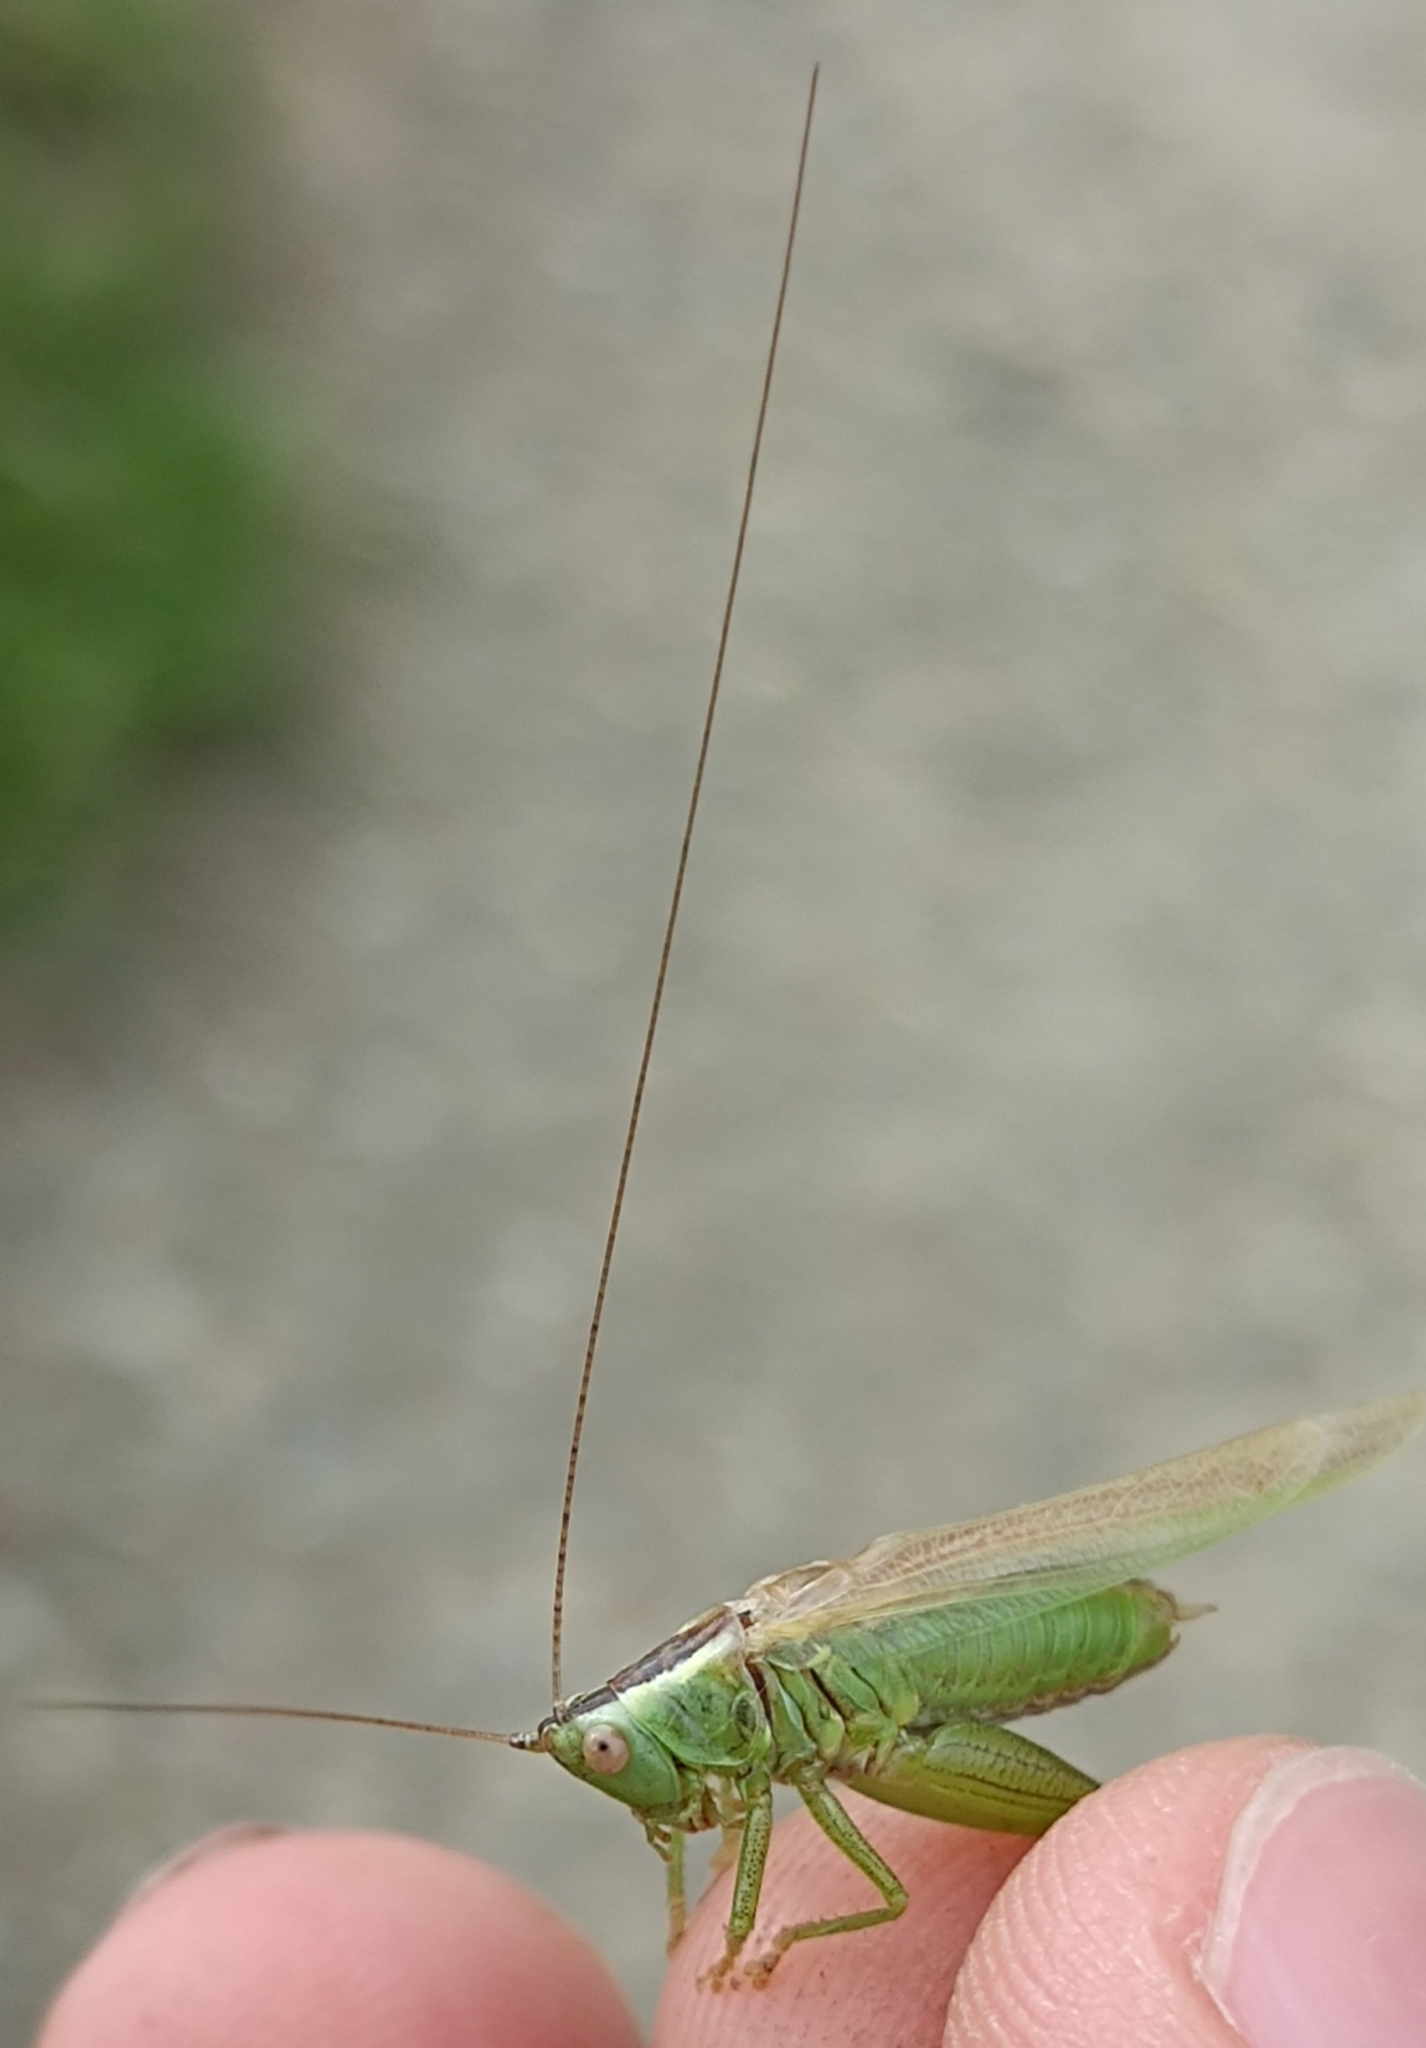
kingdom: Animalia
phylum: Arthropoda
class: Insecta
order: Orthoptera
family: Tettigoniidae
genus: Conocephalus
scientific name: Conocephalus fuscus
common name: Long-winged conehead
